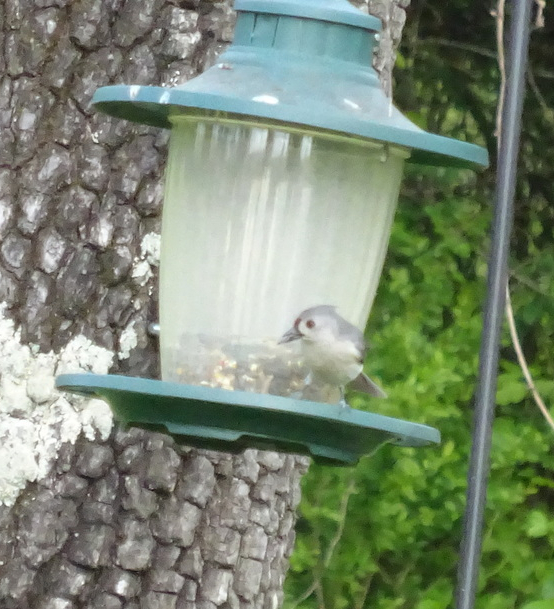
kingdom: Animalia
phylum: Chordata
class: Aves
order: Passeriformes
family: Paridae
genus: Baeolophus
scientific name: Baeolophus bicolor
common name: Tufted titmouse
